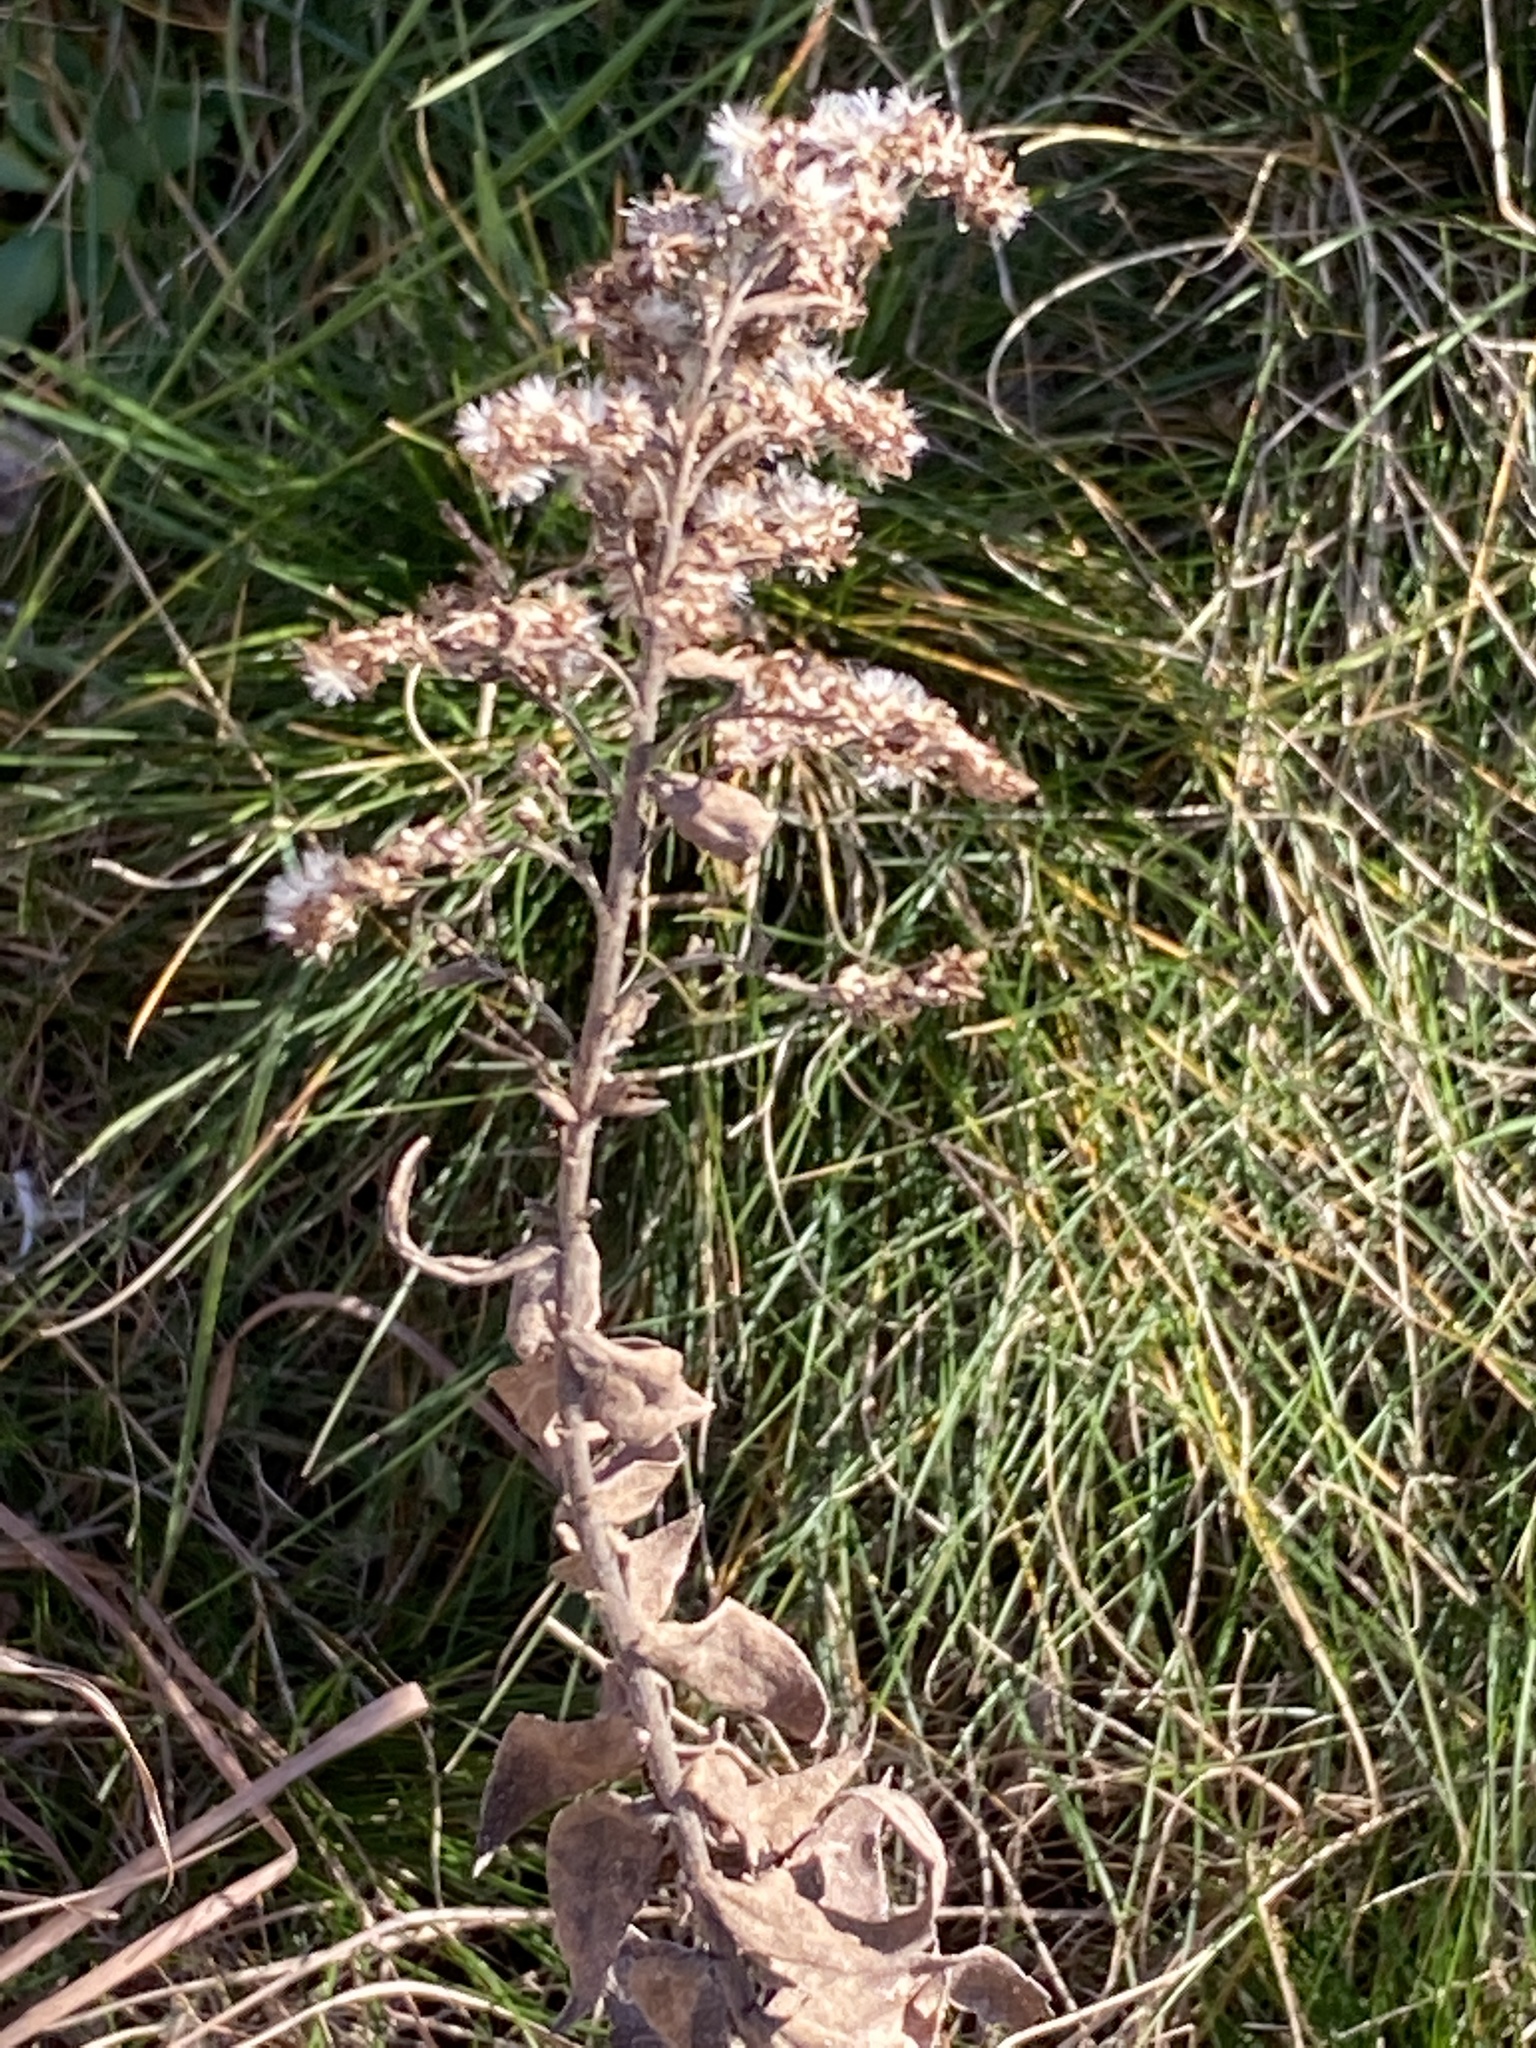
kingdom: Plantae
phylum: Tracheophyta
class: Magnoliopsida
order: Asterales
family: Asteraceae
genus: Solidago
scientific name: Solidago rigida
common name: Rigid goldenrod
